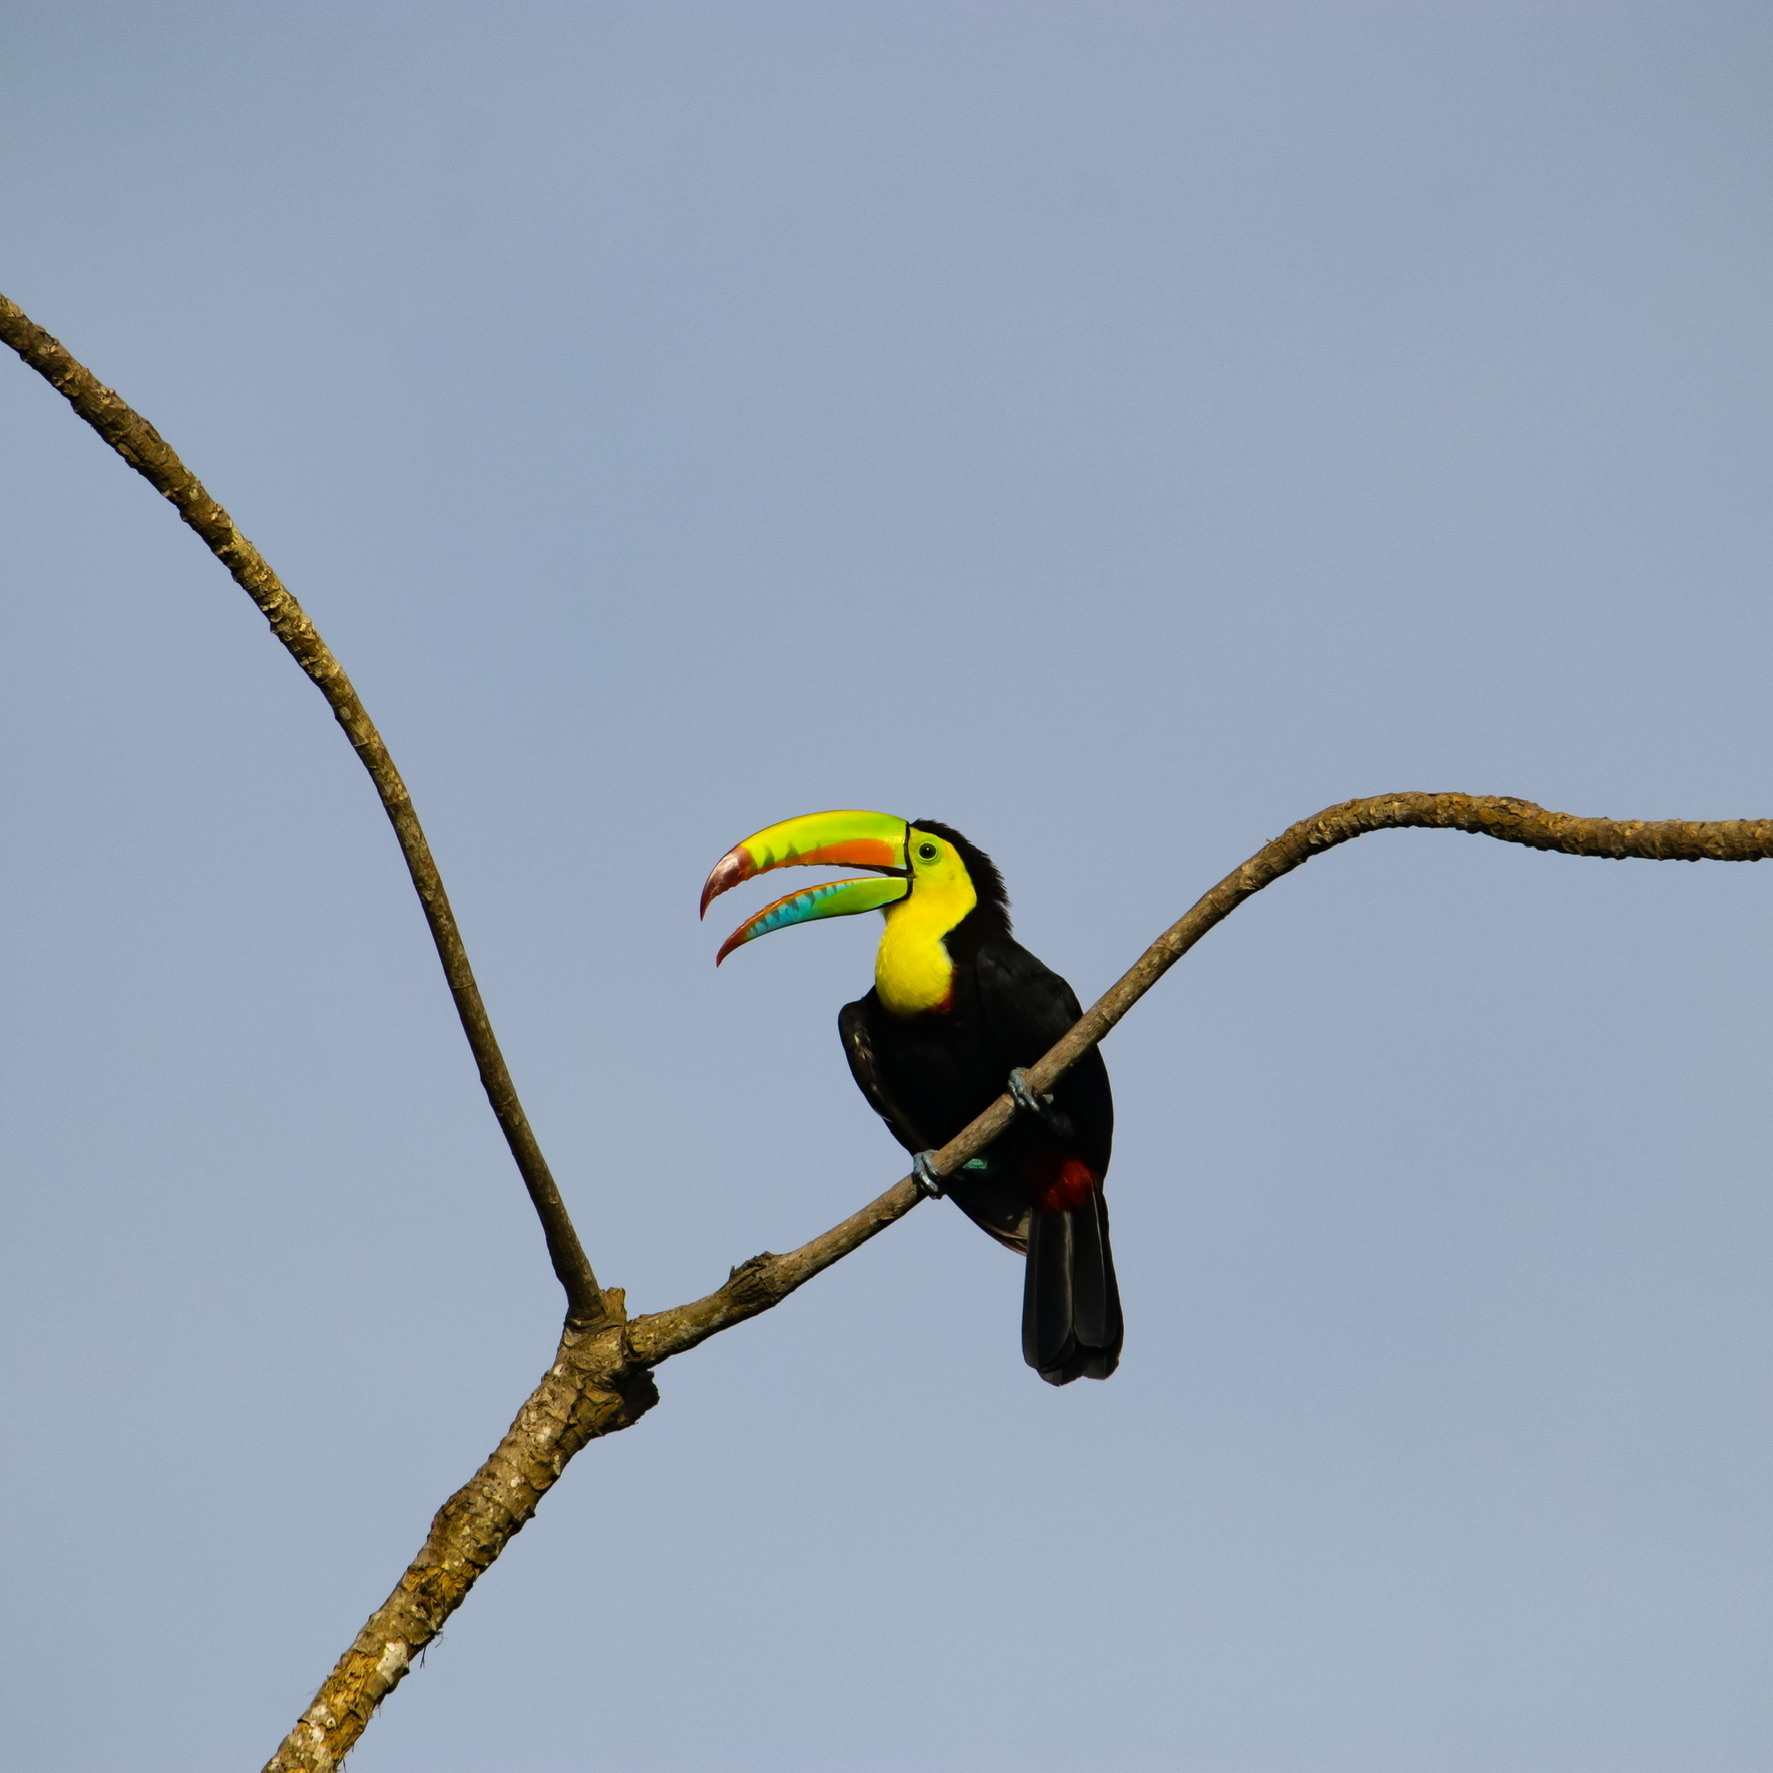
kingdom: Animalia
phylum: Chordata
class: Aves
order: Piciformes
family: Ramphastidae
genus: Ramphastos
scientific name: Ramphastos sulfuratus
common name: Keel-billed toucan
